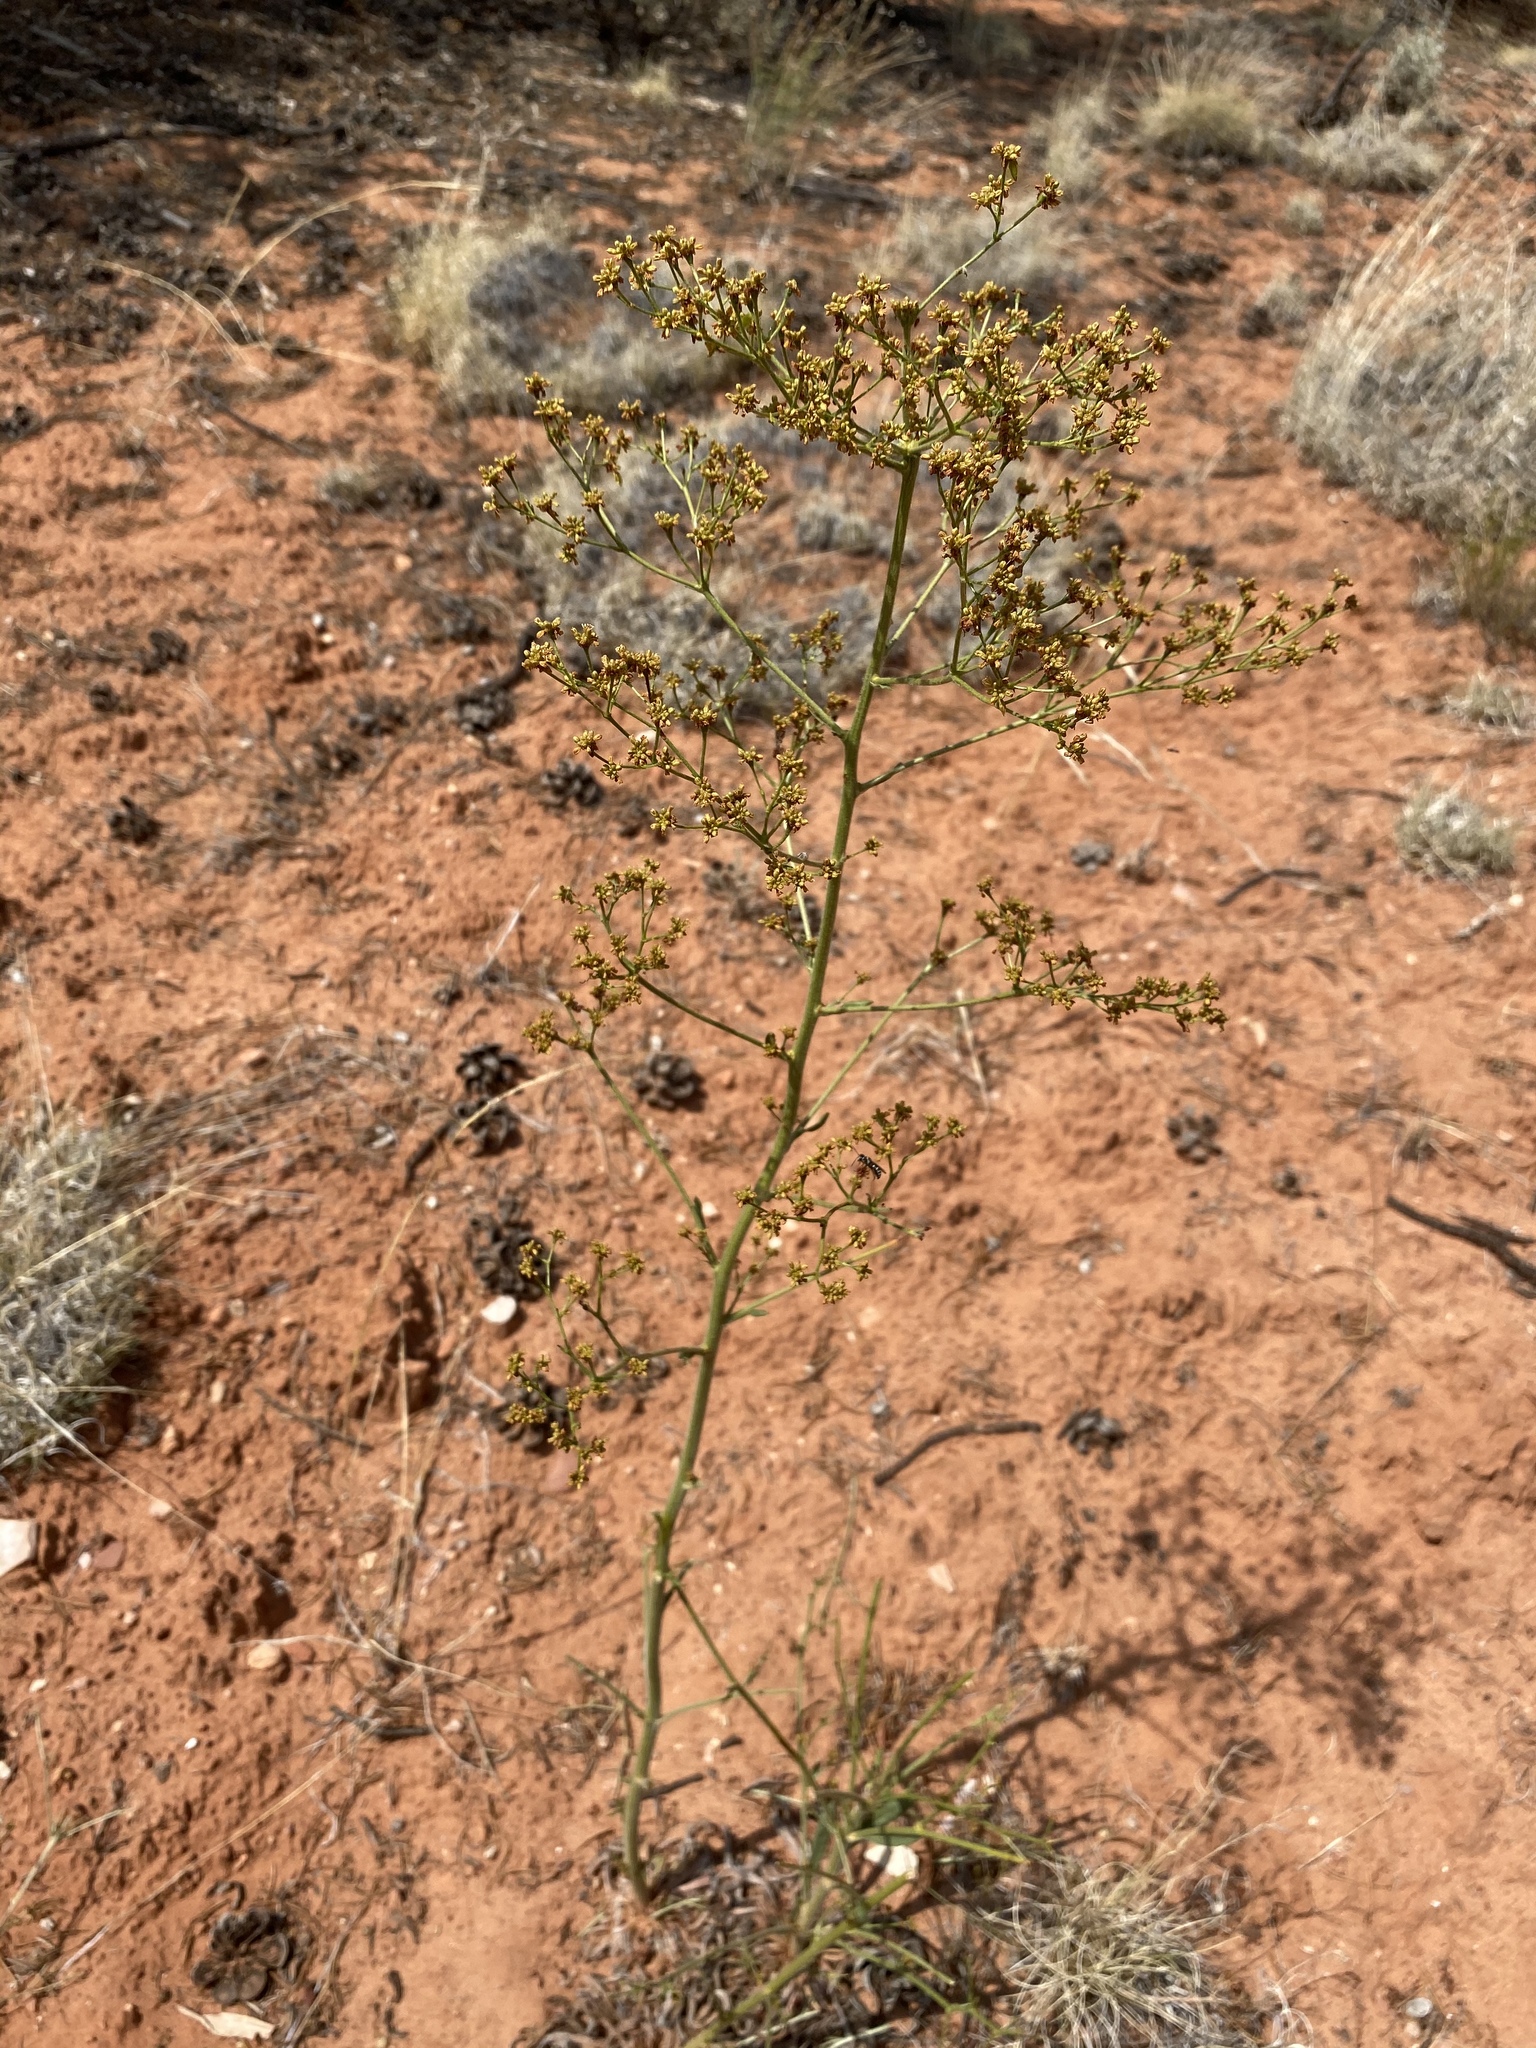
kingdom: Plantae
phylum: Tracheophyta
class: Magnoliopsida
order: Caryophyllales
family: Polygonaceae
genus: Eriogonum
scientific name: Eriogonum alatum
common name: Winged eriogonum
